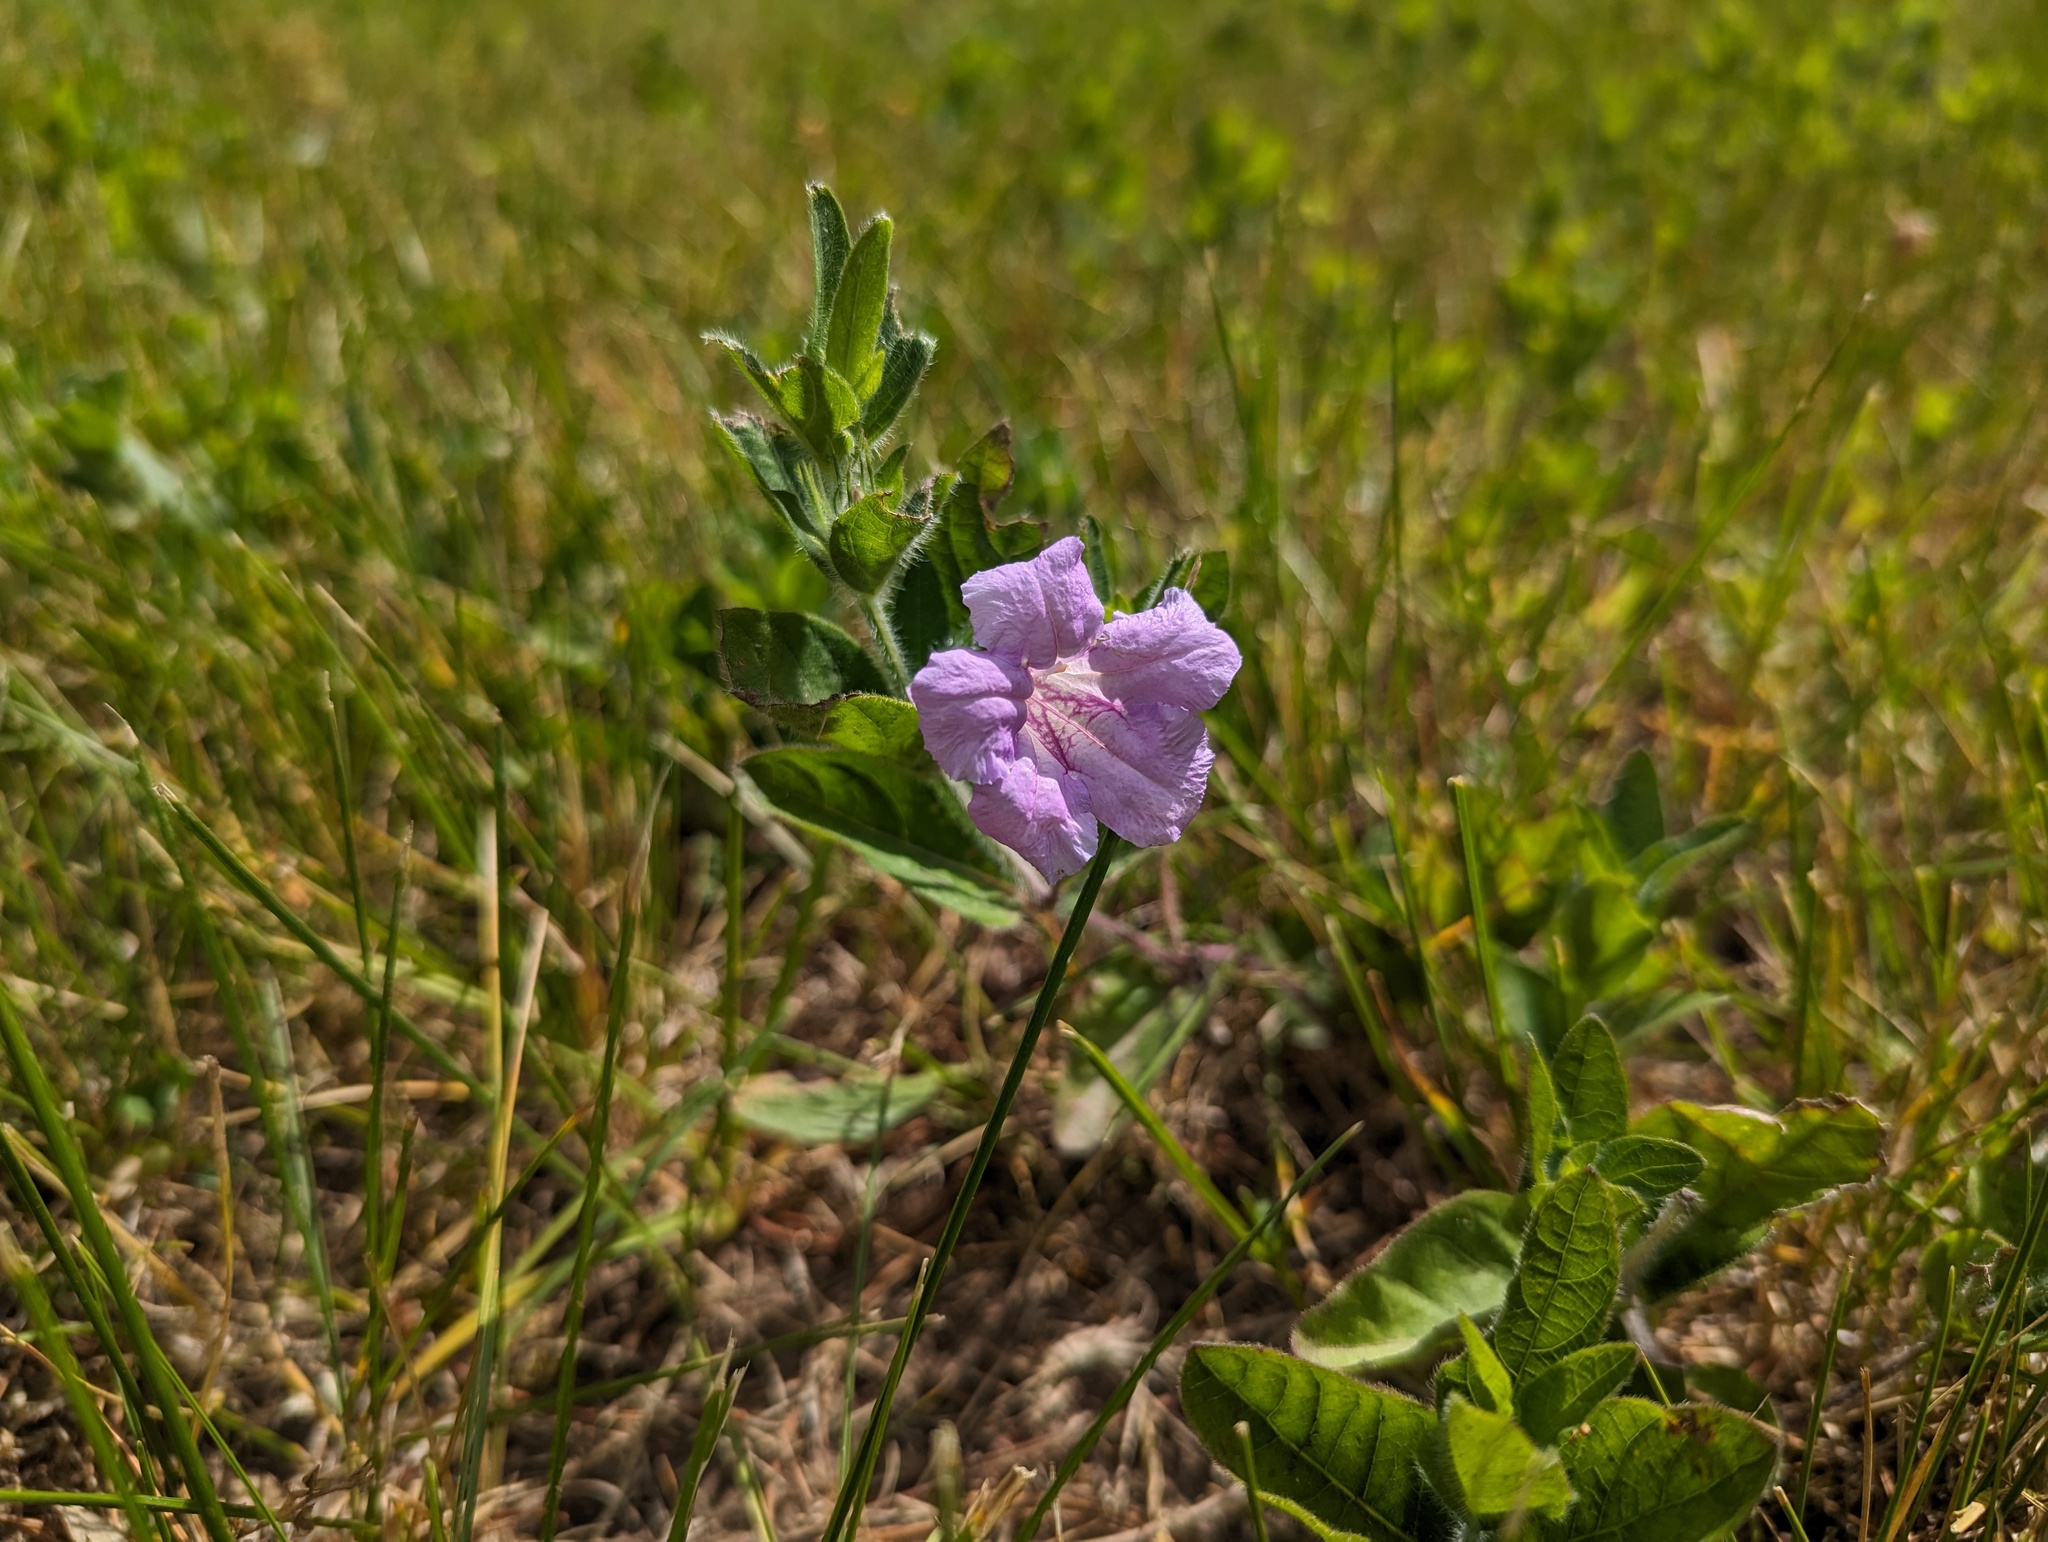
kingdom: Plantae
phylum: Tracheophyta
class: Magnoliopsida
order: Lamiales
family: Acanthaceae
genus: Ruellia
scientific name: Ruellia humilis
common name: Fringe-leaf ruellia
